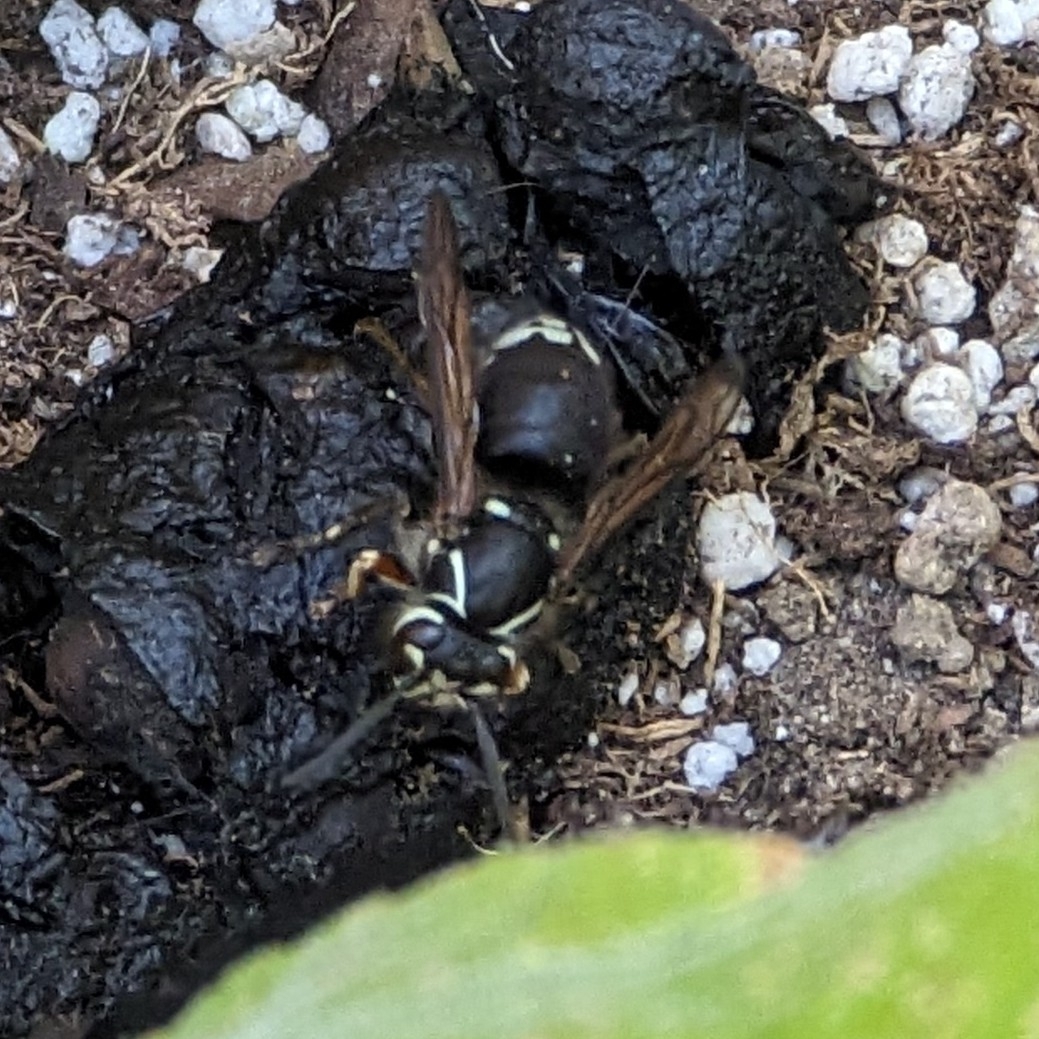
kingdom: Animalia
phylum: Arthropoda
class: Insecta
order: Hymenoptera
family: Vespidae
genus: Dolichovespula
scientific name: Dolichovespula maculata
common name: Bald-faced hornet
